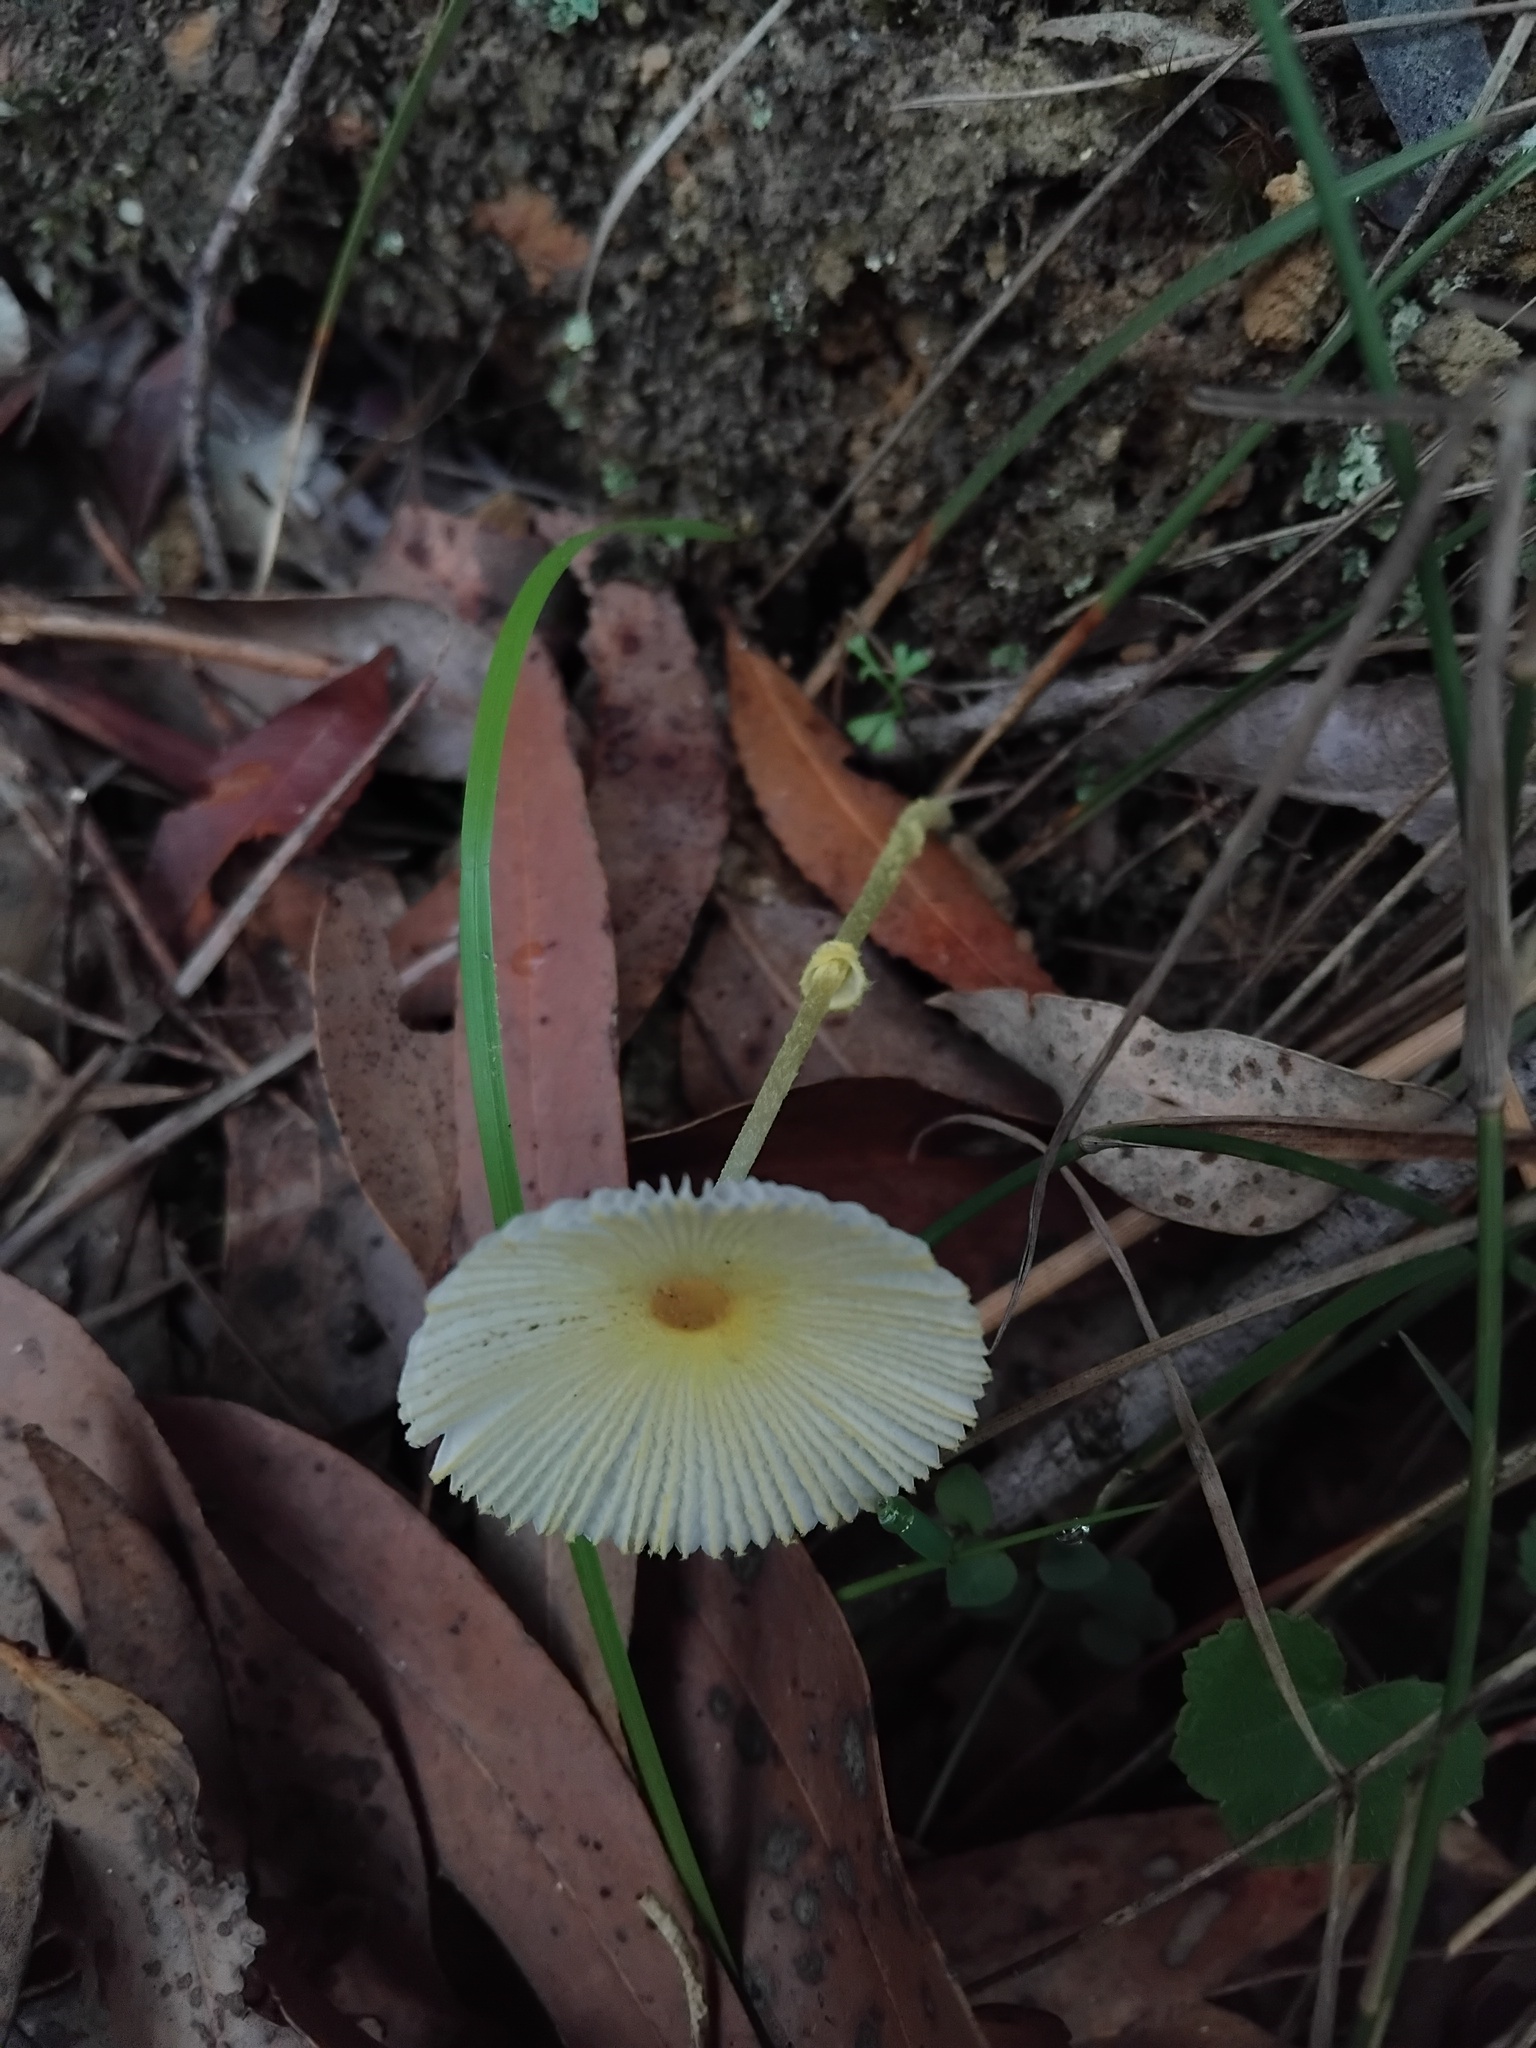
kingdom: Fungi
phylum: Basidiomycota
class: Agaricomycetes
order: Agaricales
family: Agaricaceae
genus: Leucocoprinus
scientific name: Leucocoprinus fragilissimus
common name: Fragile dapperling
